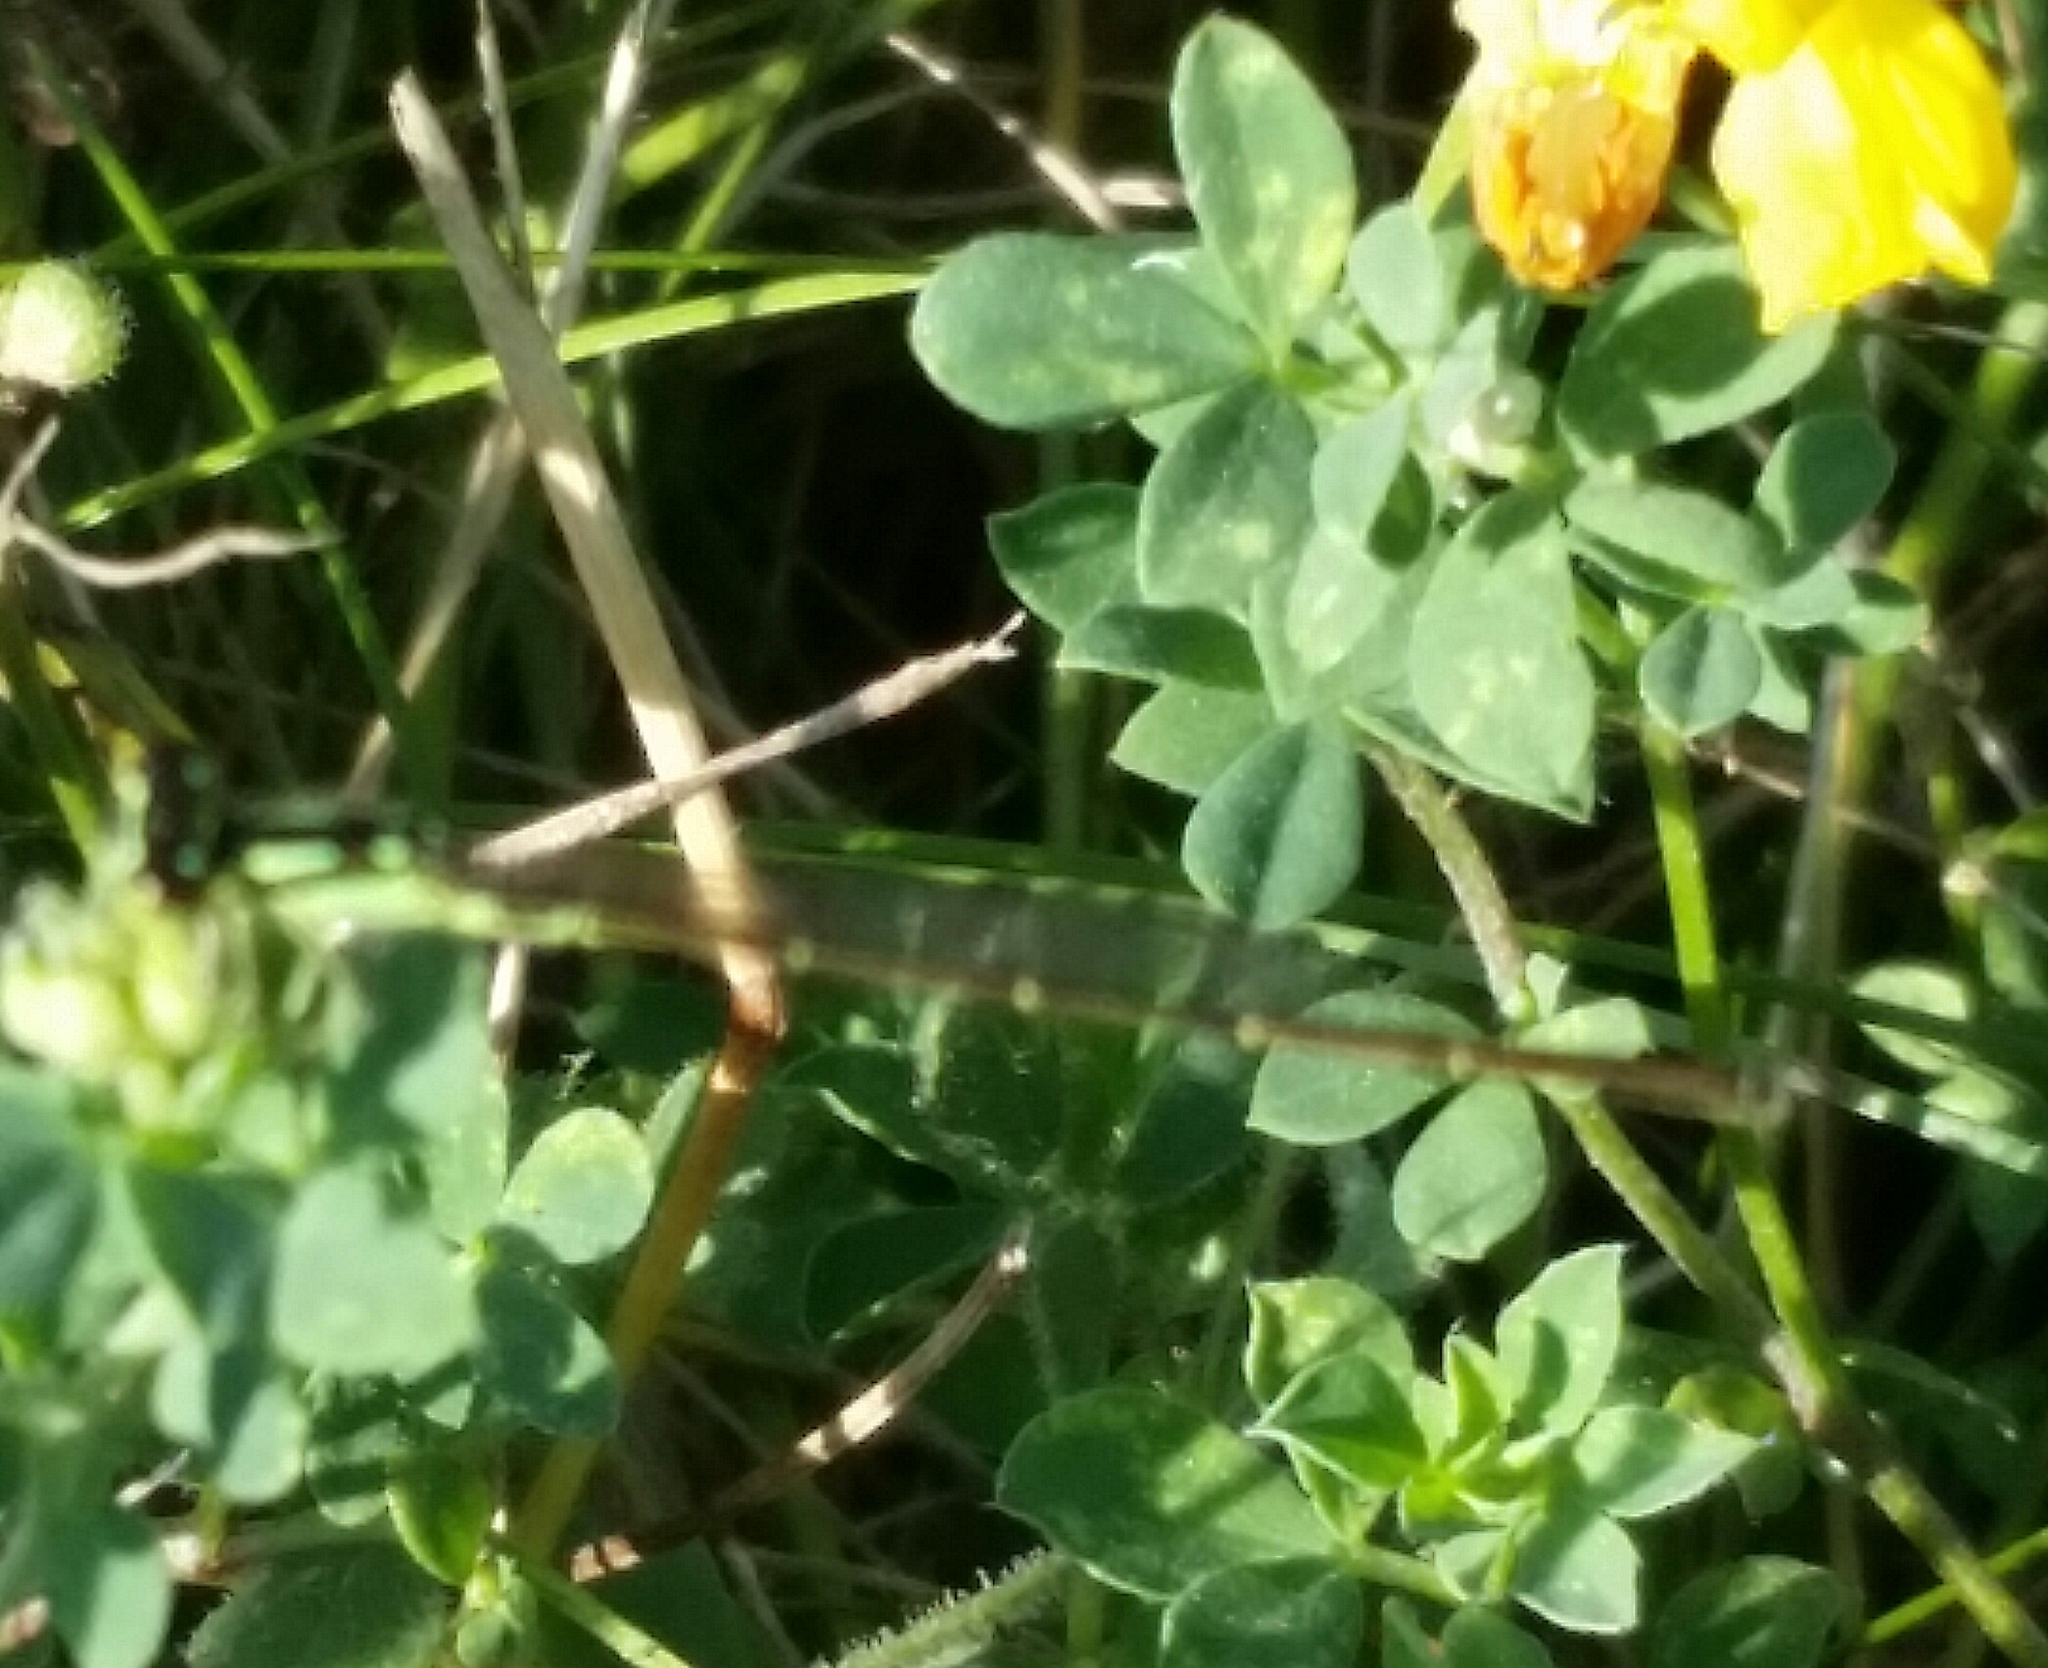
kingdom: Animalia
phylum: Arthropoda
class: Insecta
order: Odonata
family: Coenagrionidae
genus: Ischnura
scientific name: Ischnura posita
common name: Fragile forktail
